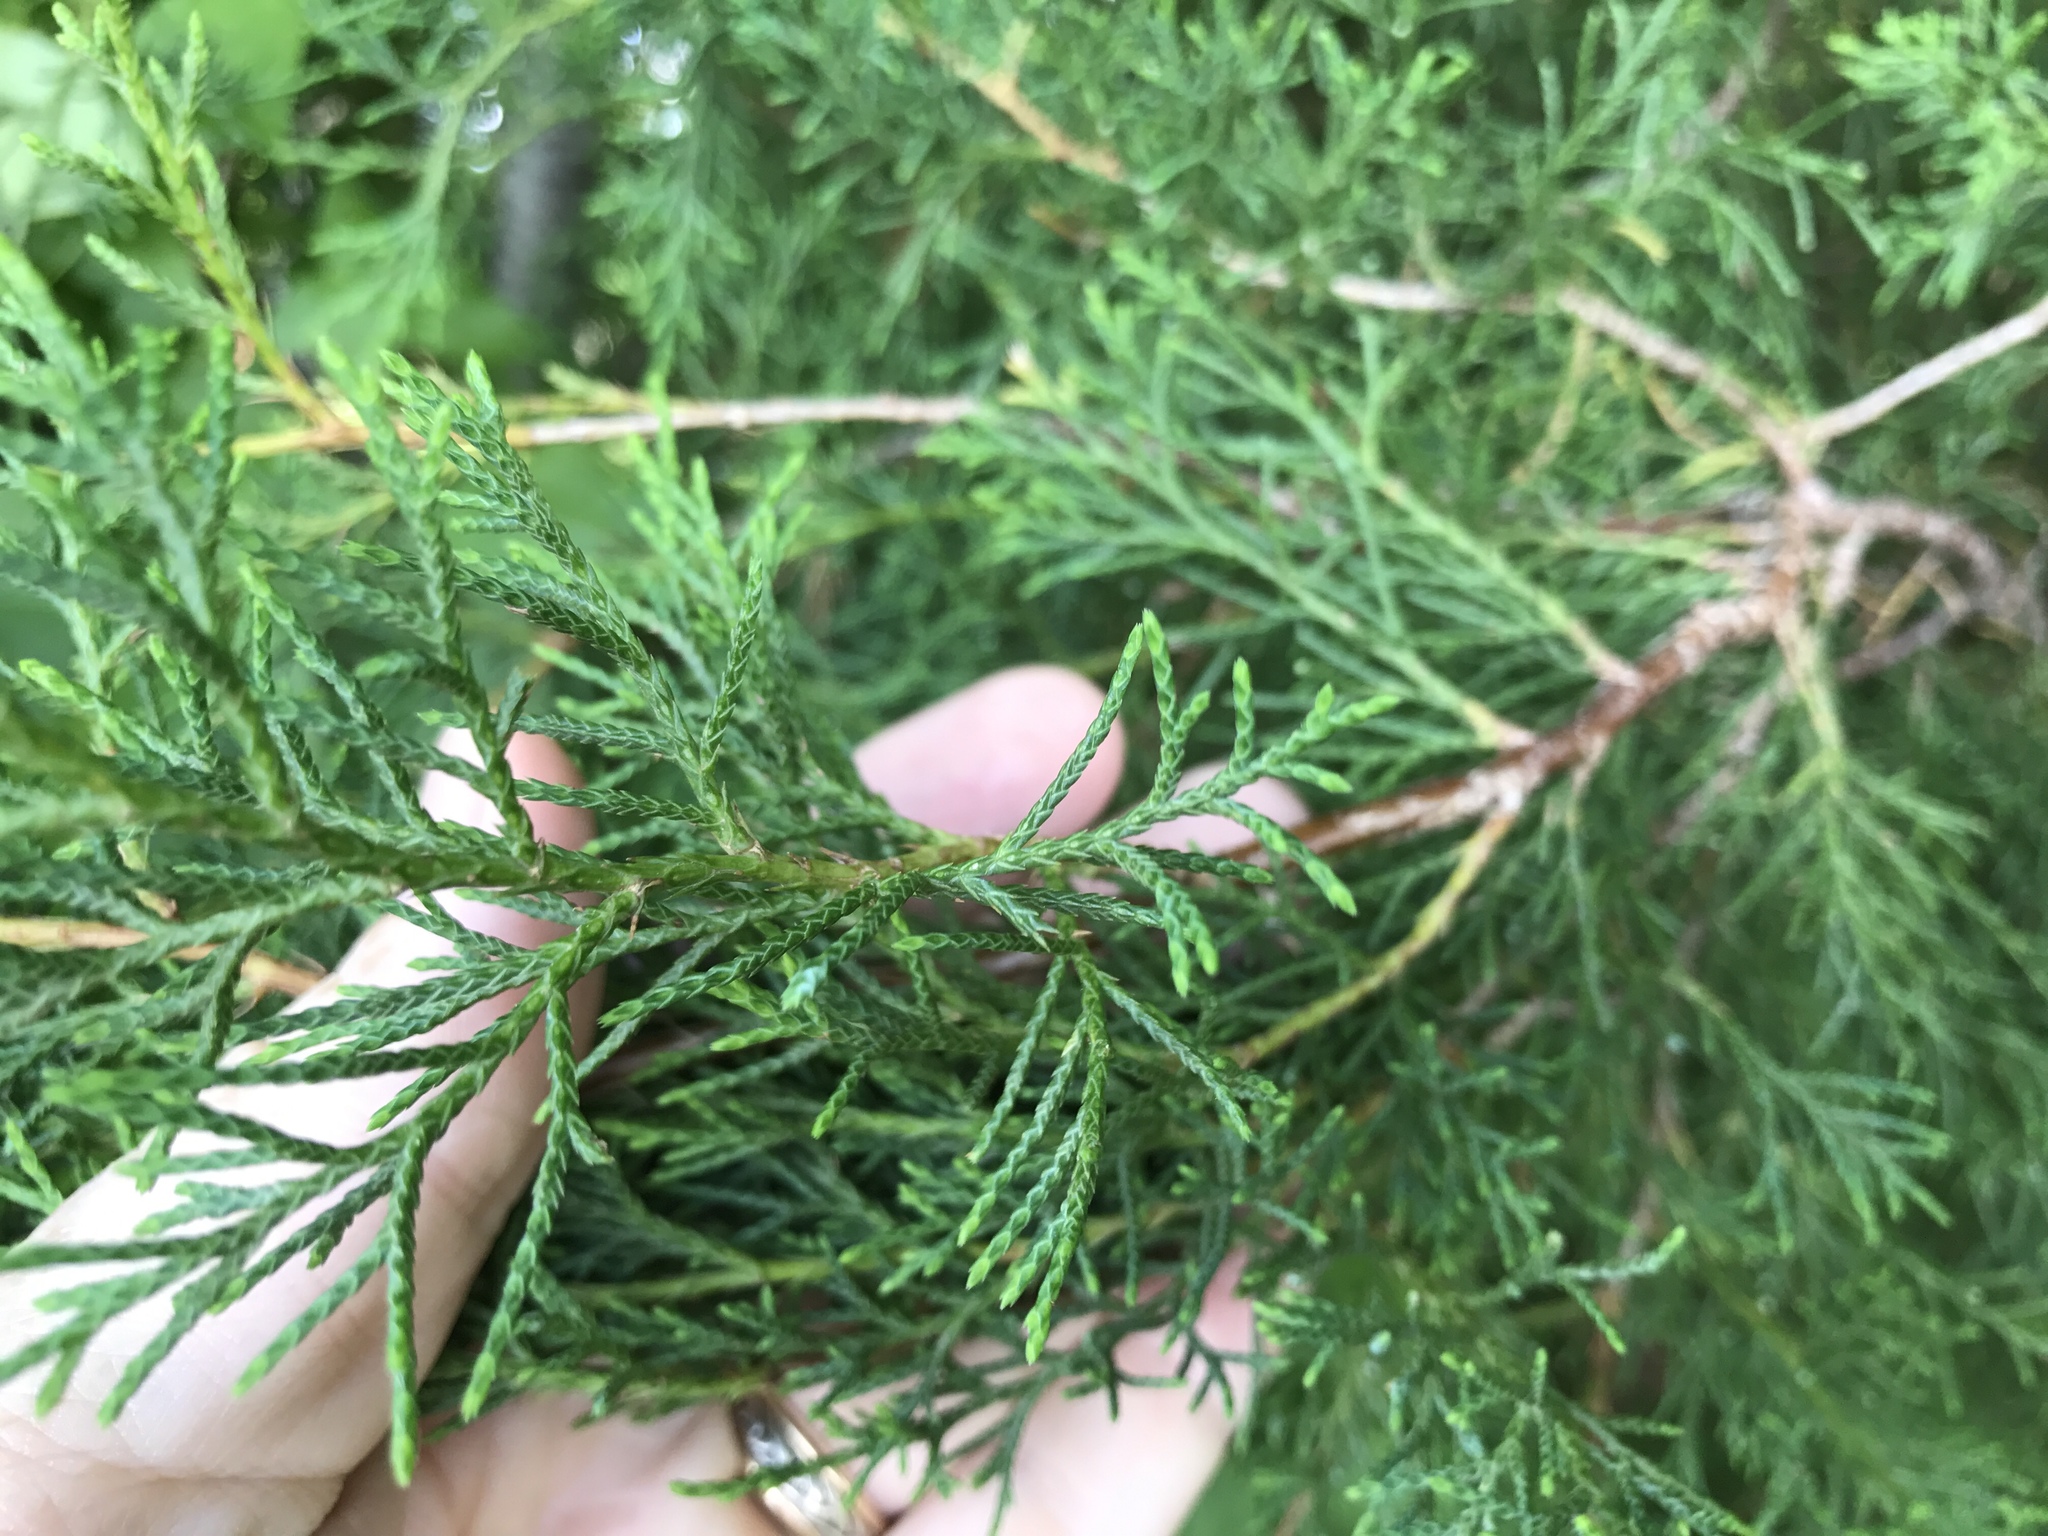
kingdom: Plantae
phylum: Tracheophyta
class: Pinopsida
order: Pinales
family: Cupressaceae
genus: Juniperus
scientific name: Juniperus virginiana
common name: Red juniper
